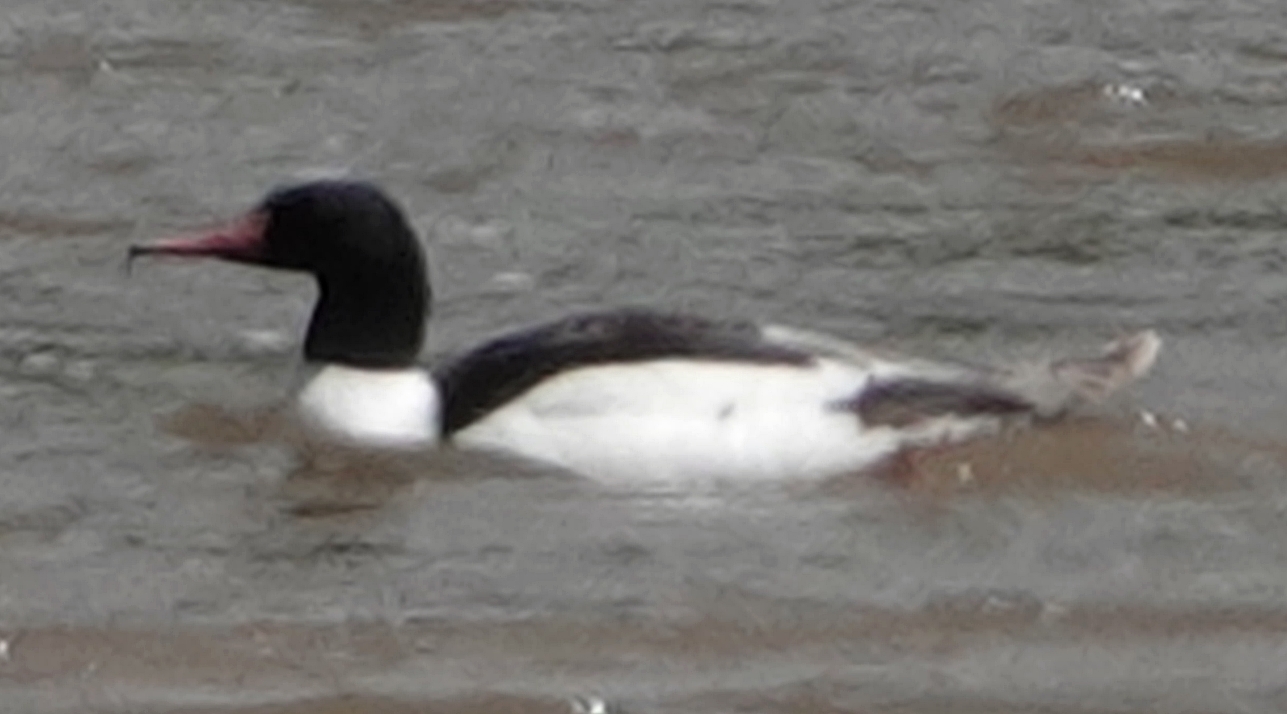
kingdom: Animalia
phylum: Chordata
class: Aves
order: Anseriformes
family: Anatidae
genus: Mergus
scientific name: Mergus merganser
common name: Common merganser
